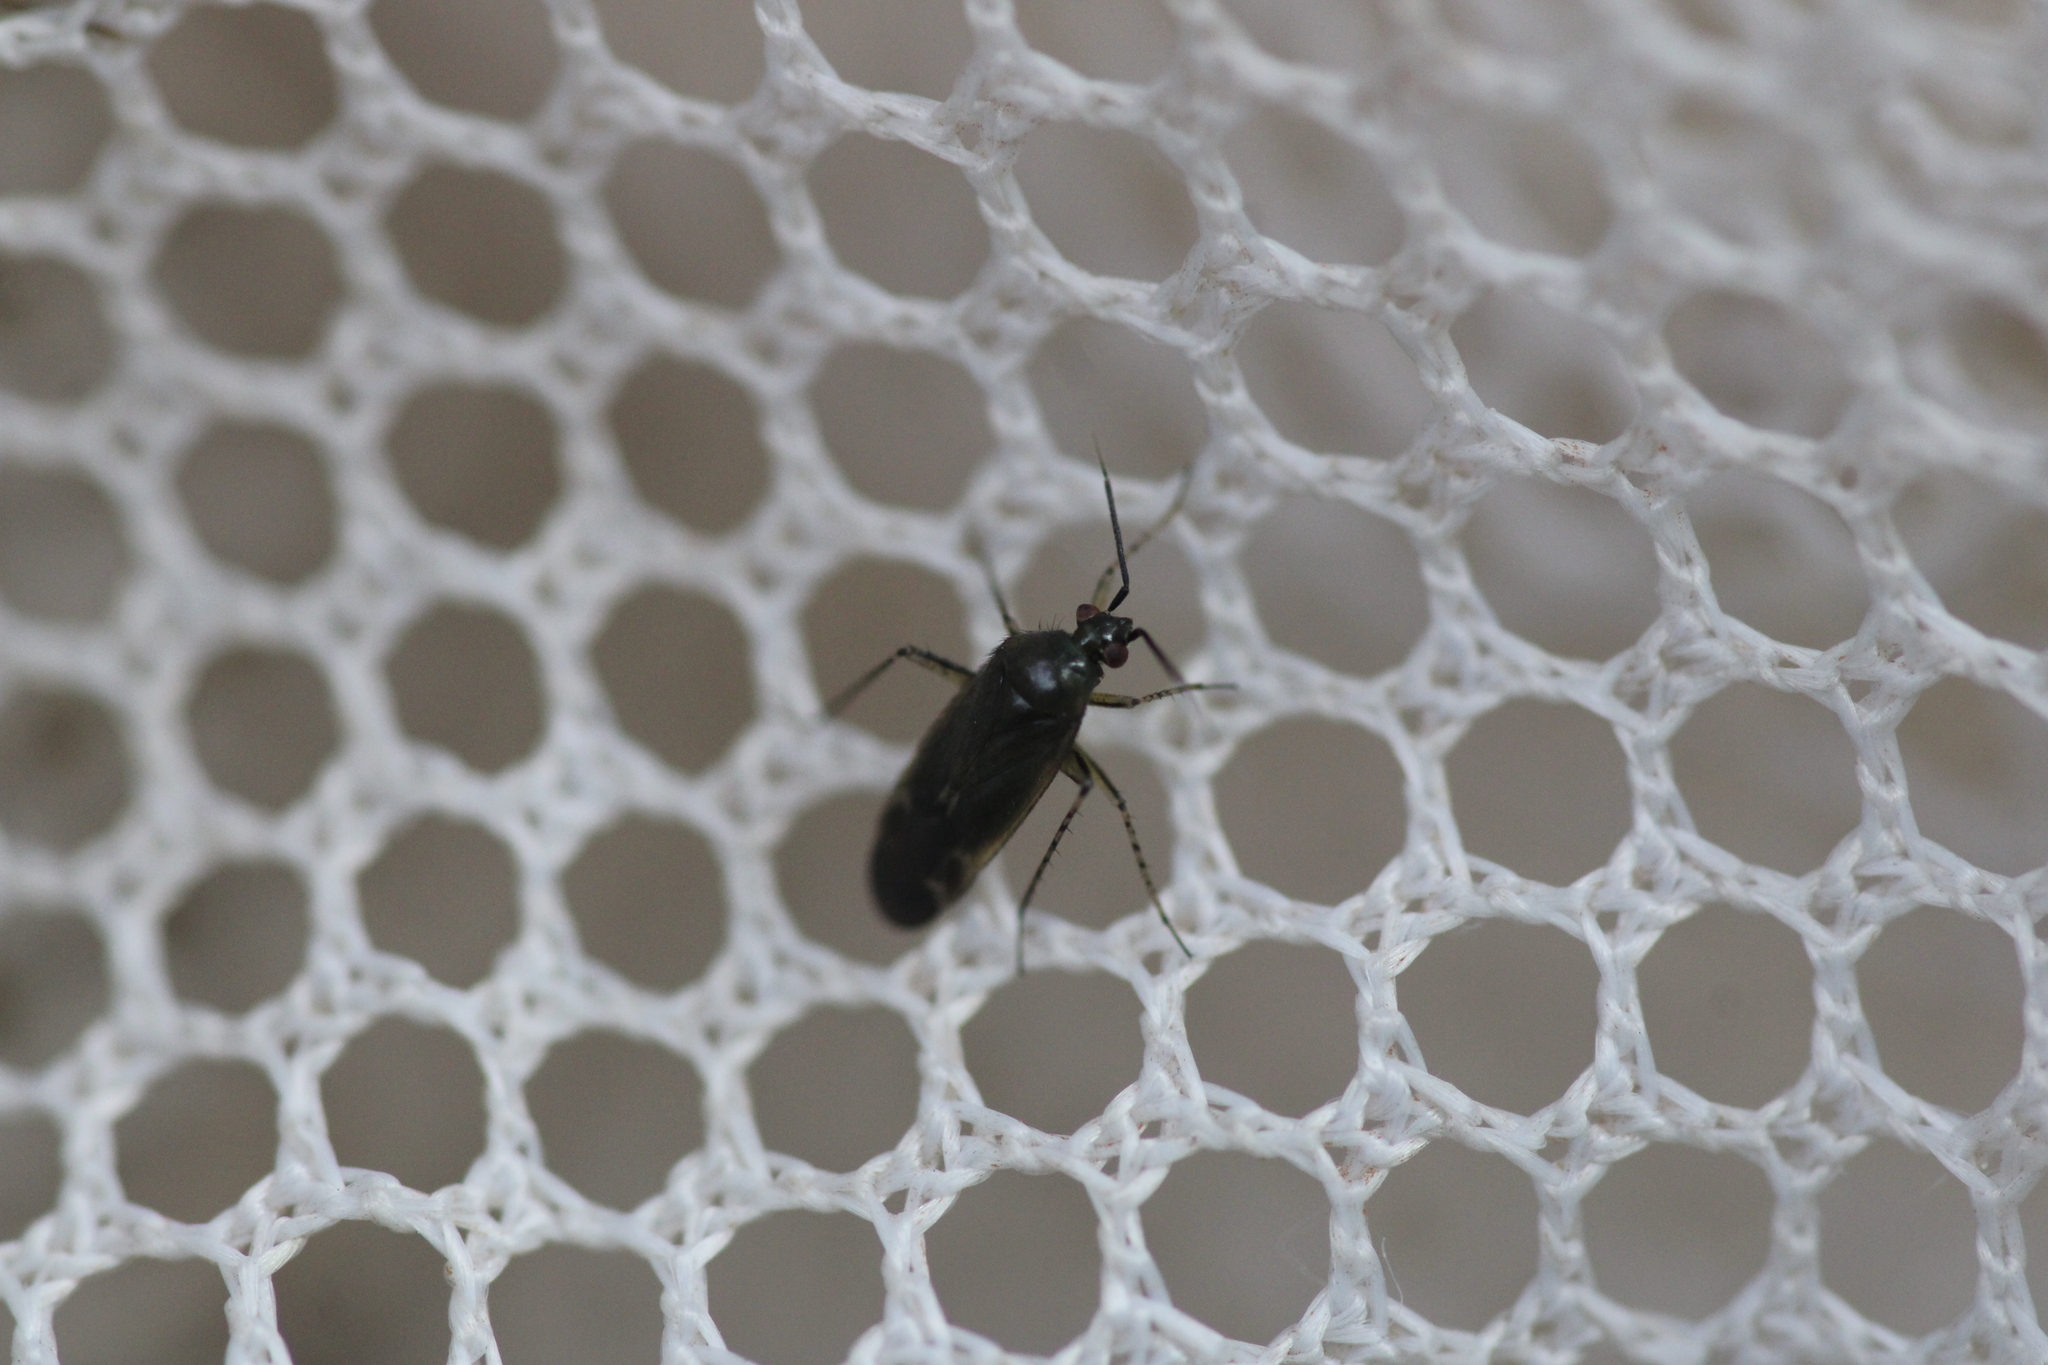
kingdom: Animalia
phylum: Arthropoda
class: Insecta
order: Hemiptera
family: Miridae
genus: Plagiognathus
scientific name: Plagiognathus arbustorum
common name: Plant bug
